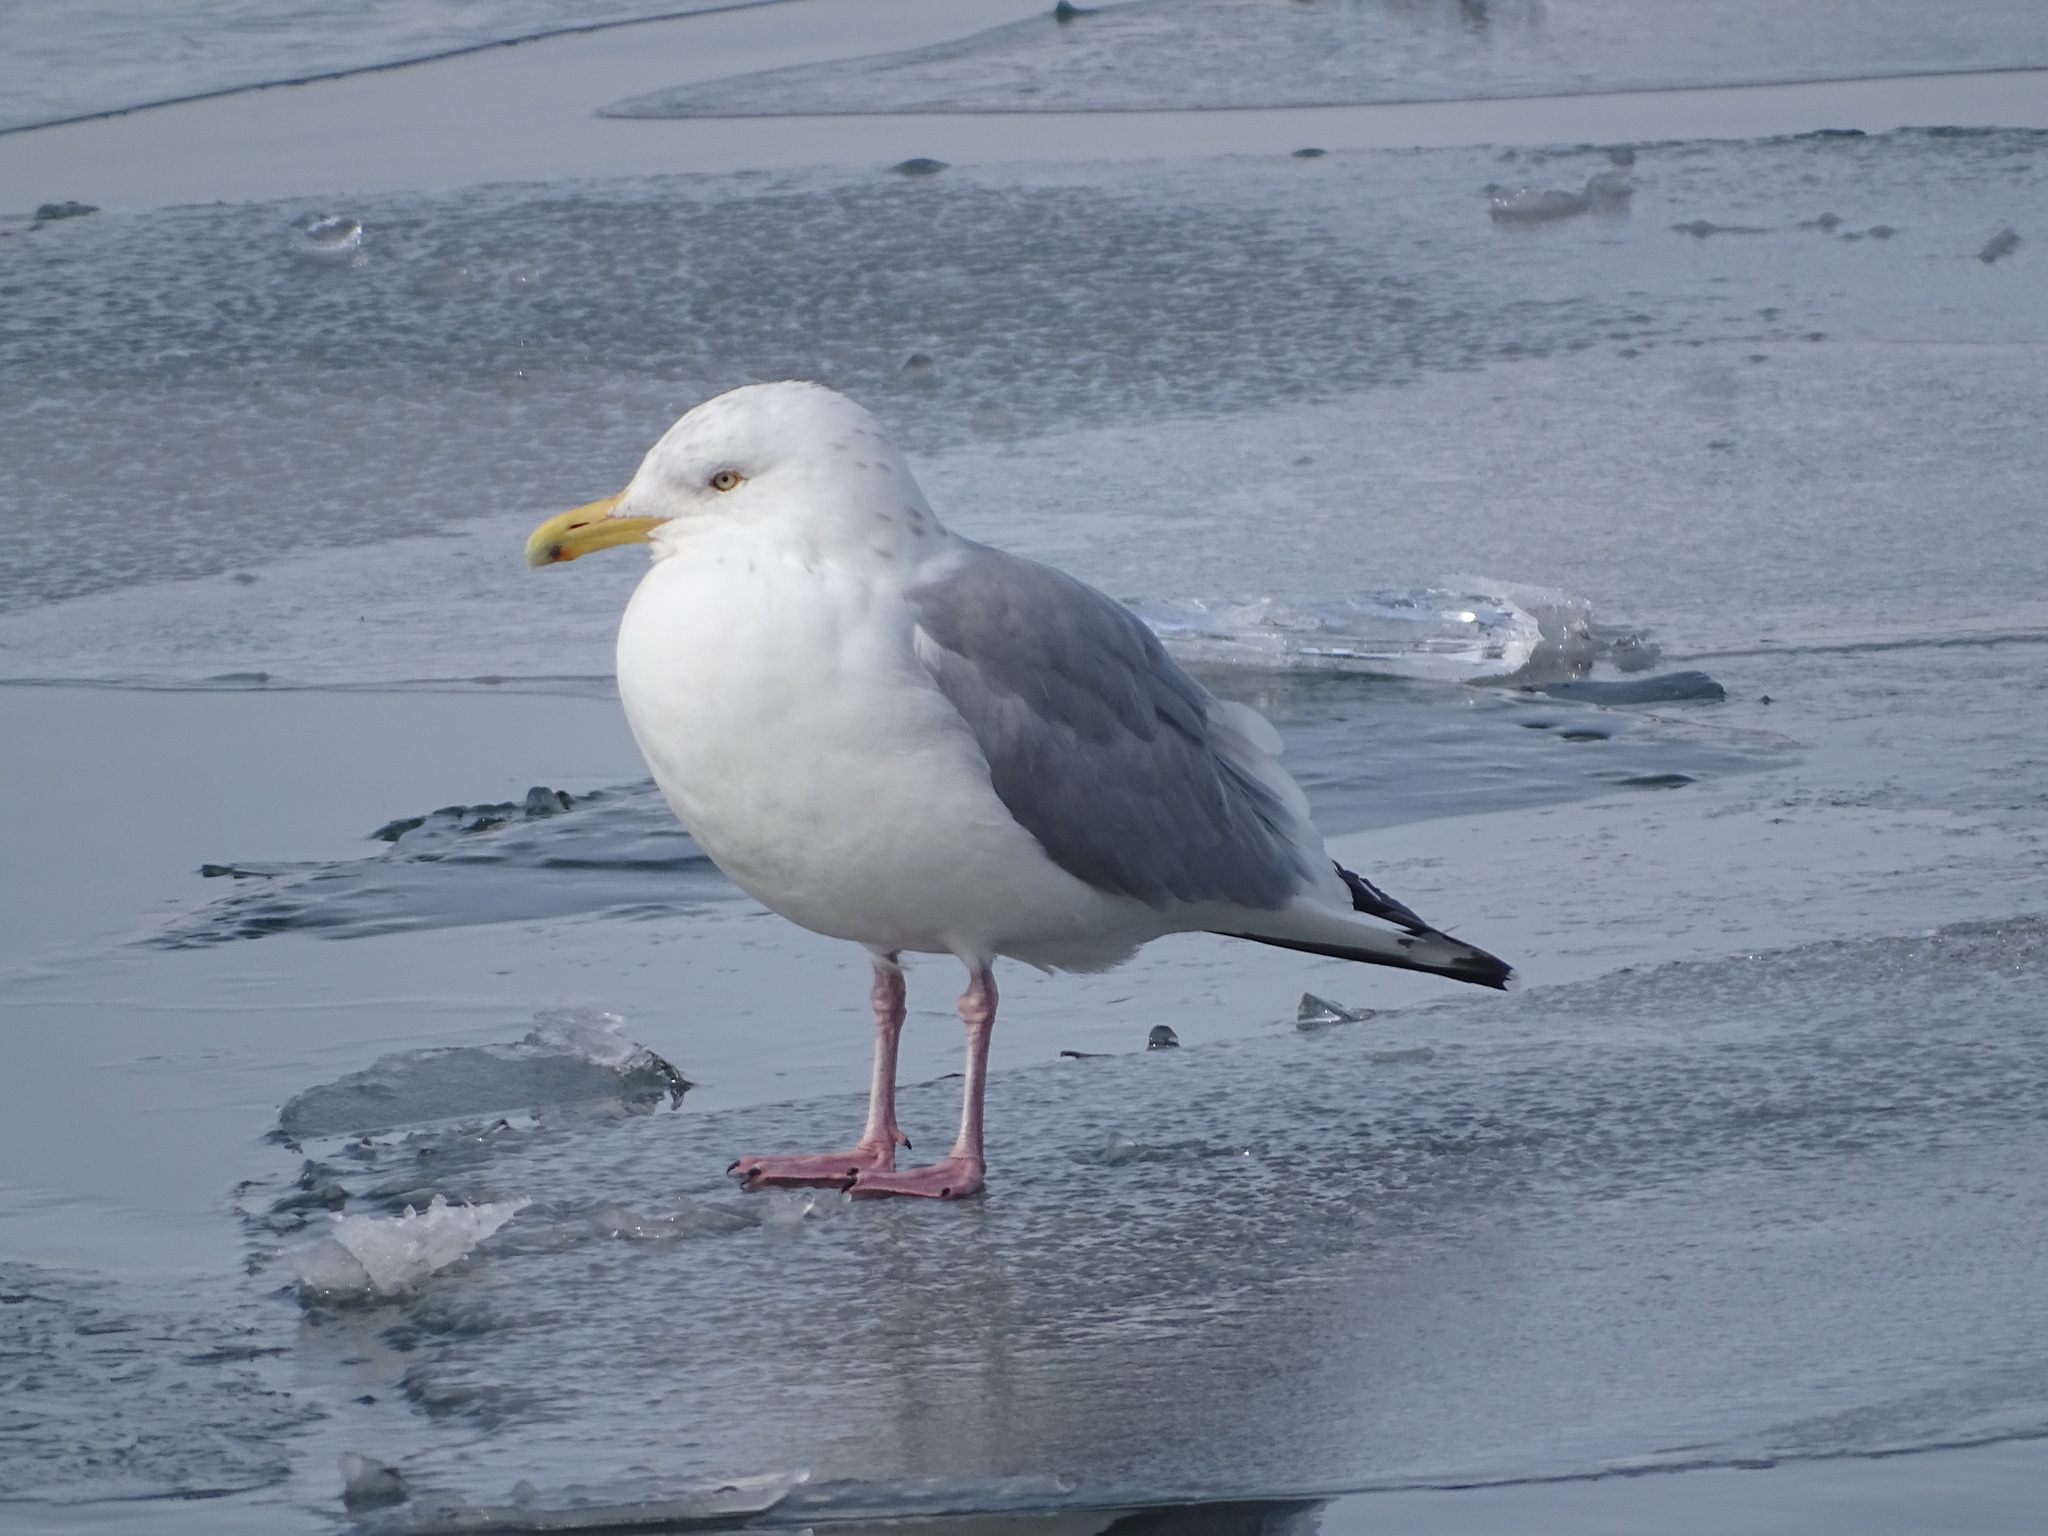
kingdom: Animalia
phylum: Chordata
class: Aves
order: Charadriiformes
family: Laridae
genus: Larus
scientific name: Larus argentatus
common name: Herring gull
